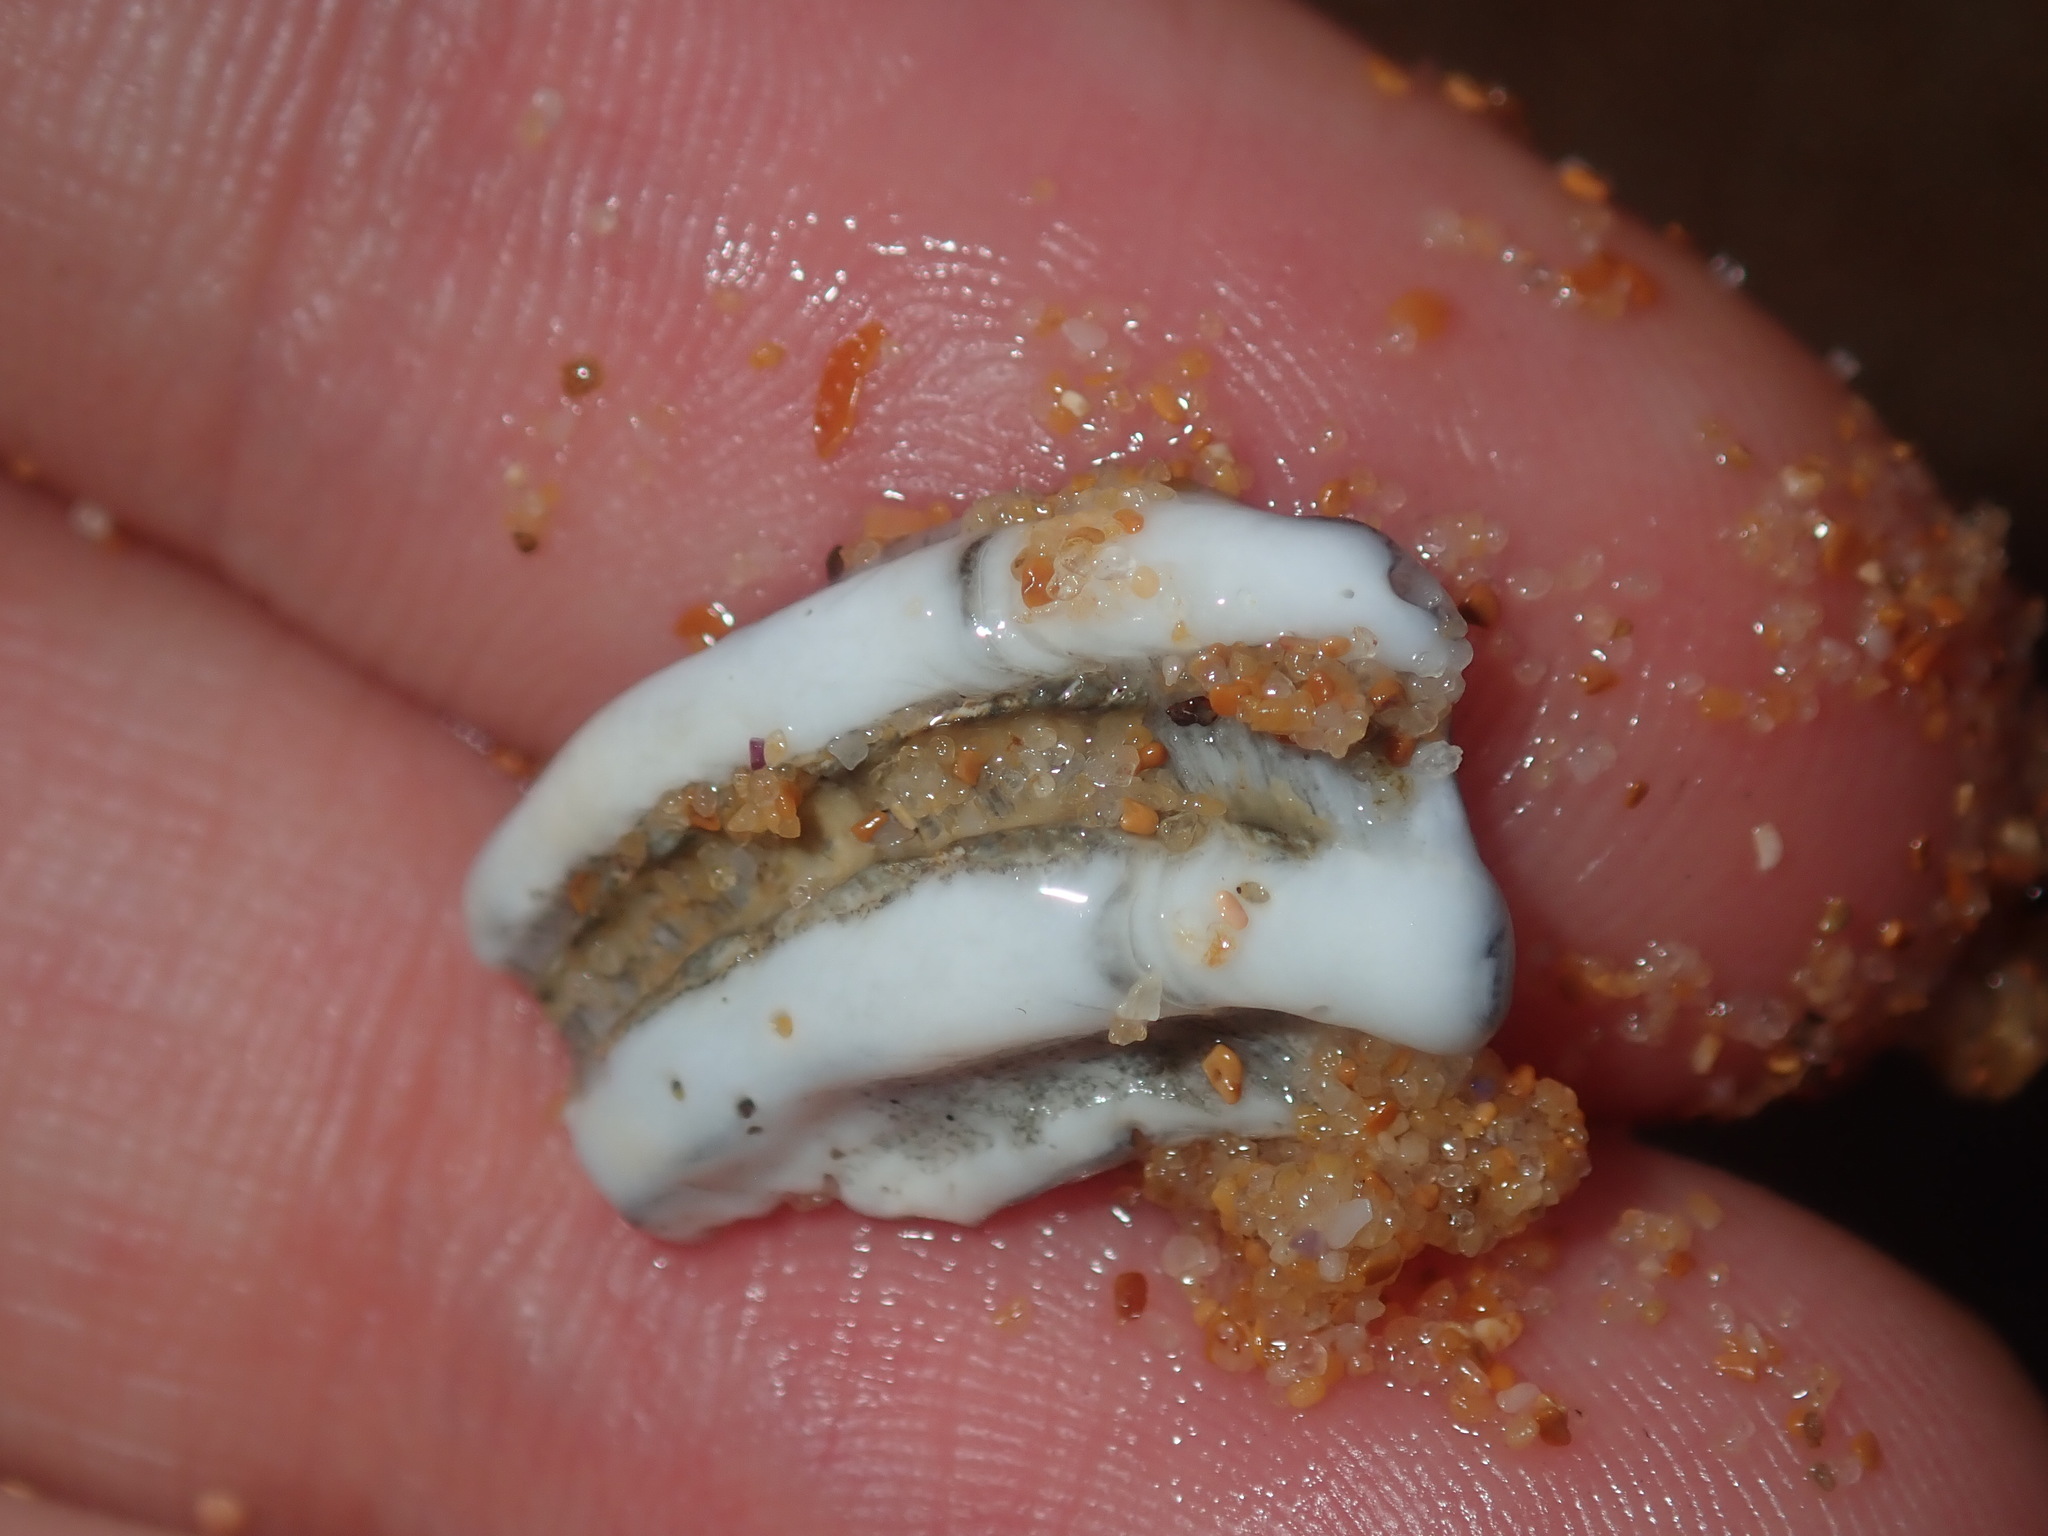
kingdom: Animalia
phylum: Mollusca
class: Gastropoda
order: Neogastropoda
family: Muricidae
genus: Dicathais
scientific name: Dicathais orbita
